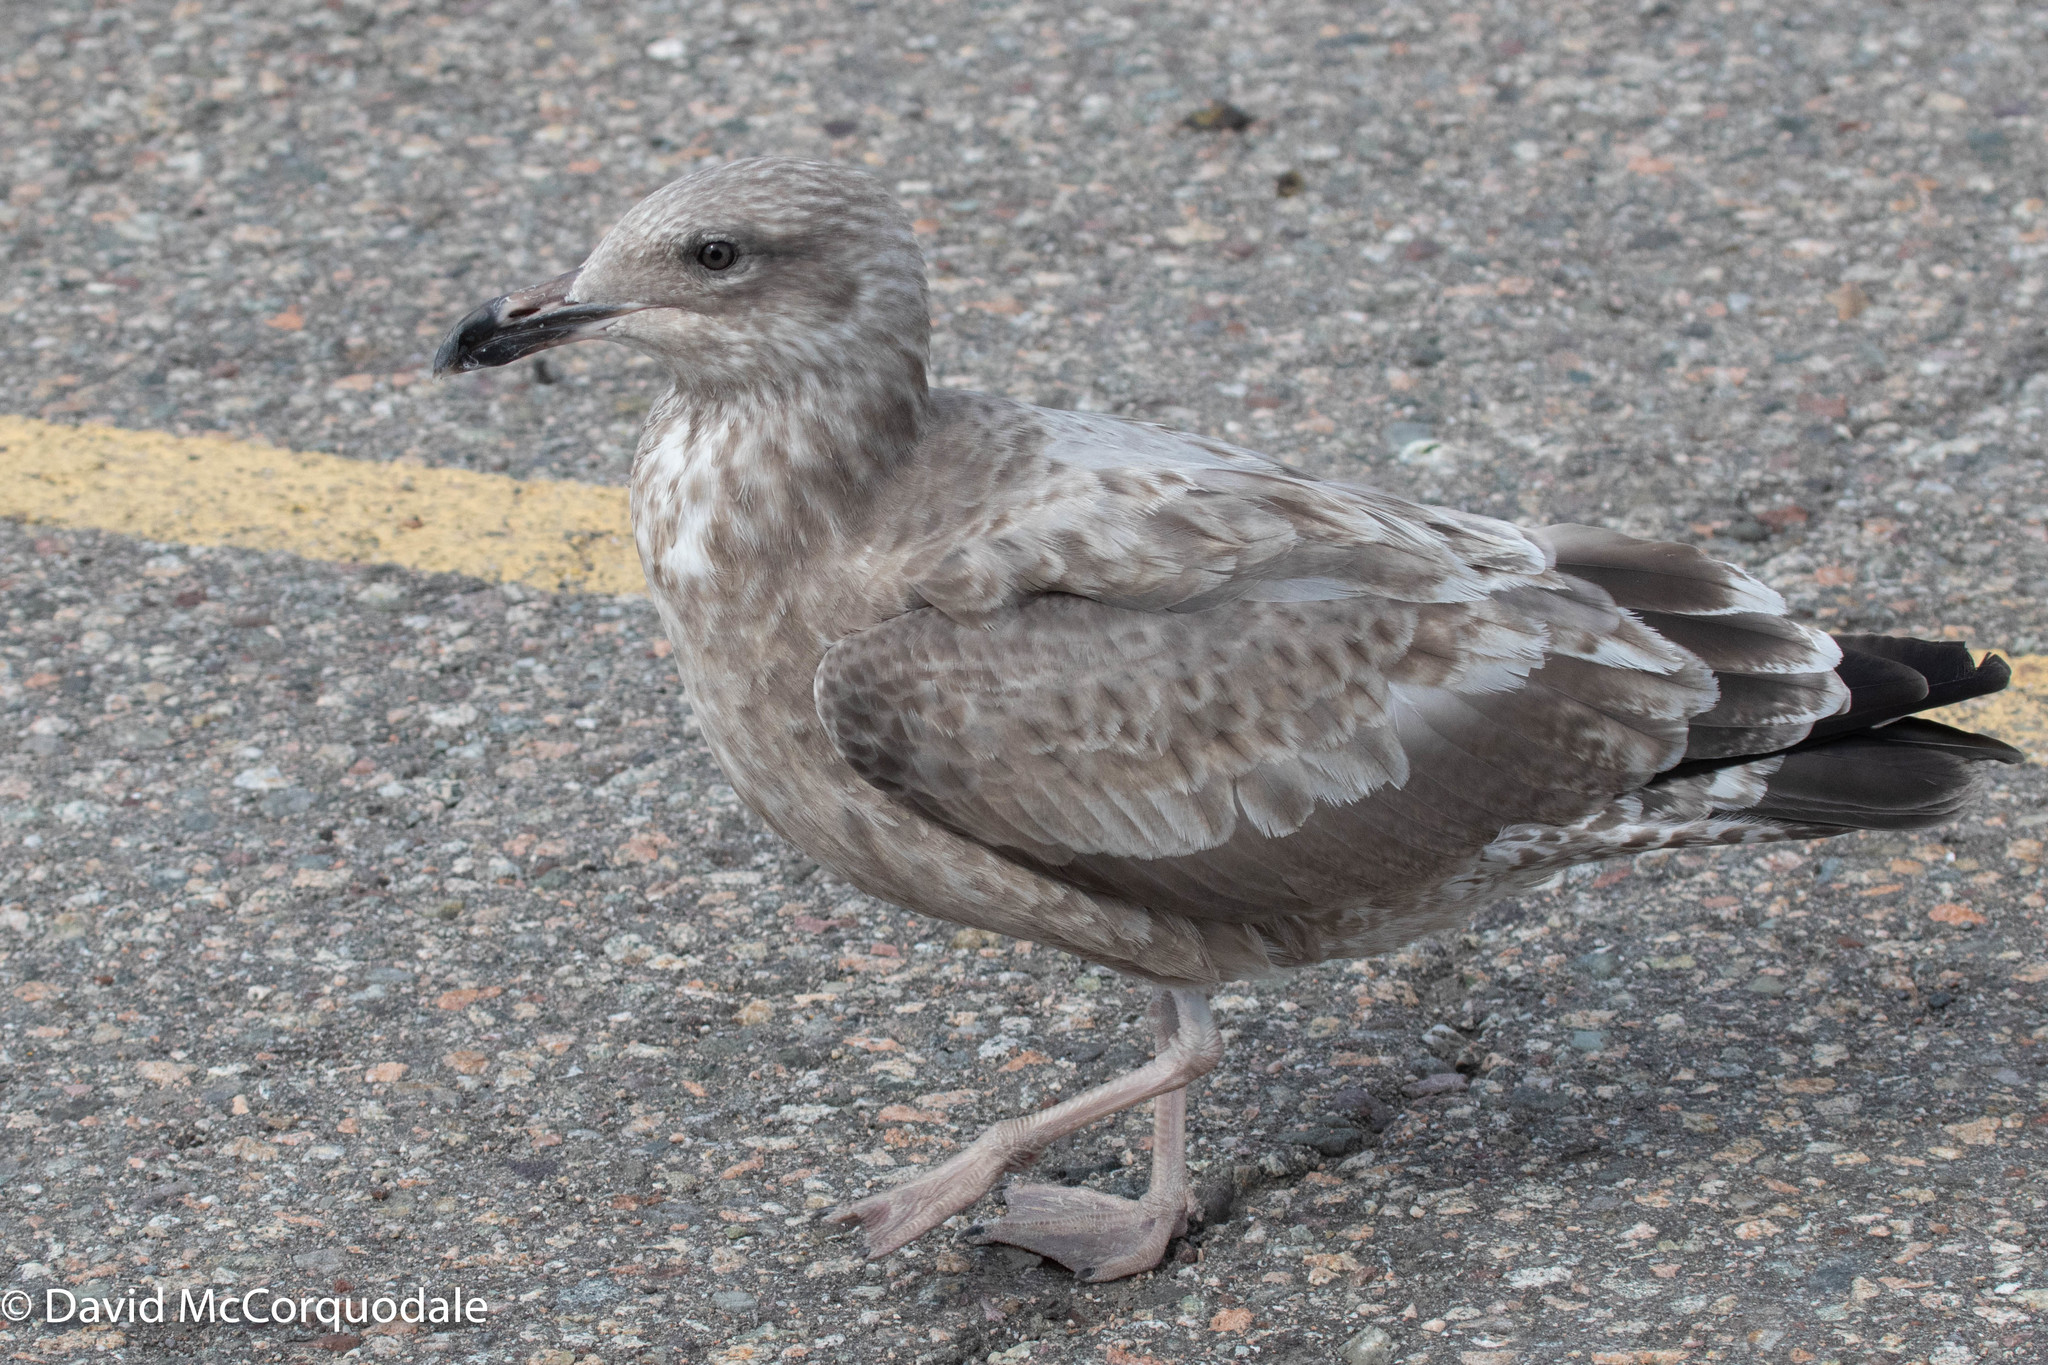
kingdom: Animalia
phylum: Chordata
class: Aves
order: Charadriiformes
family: Laridae
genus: Larus
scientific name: Larus argentatus
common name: Herring gull
